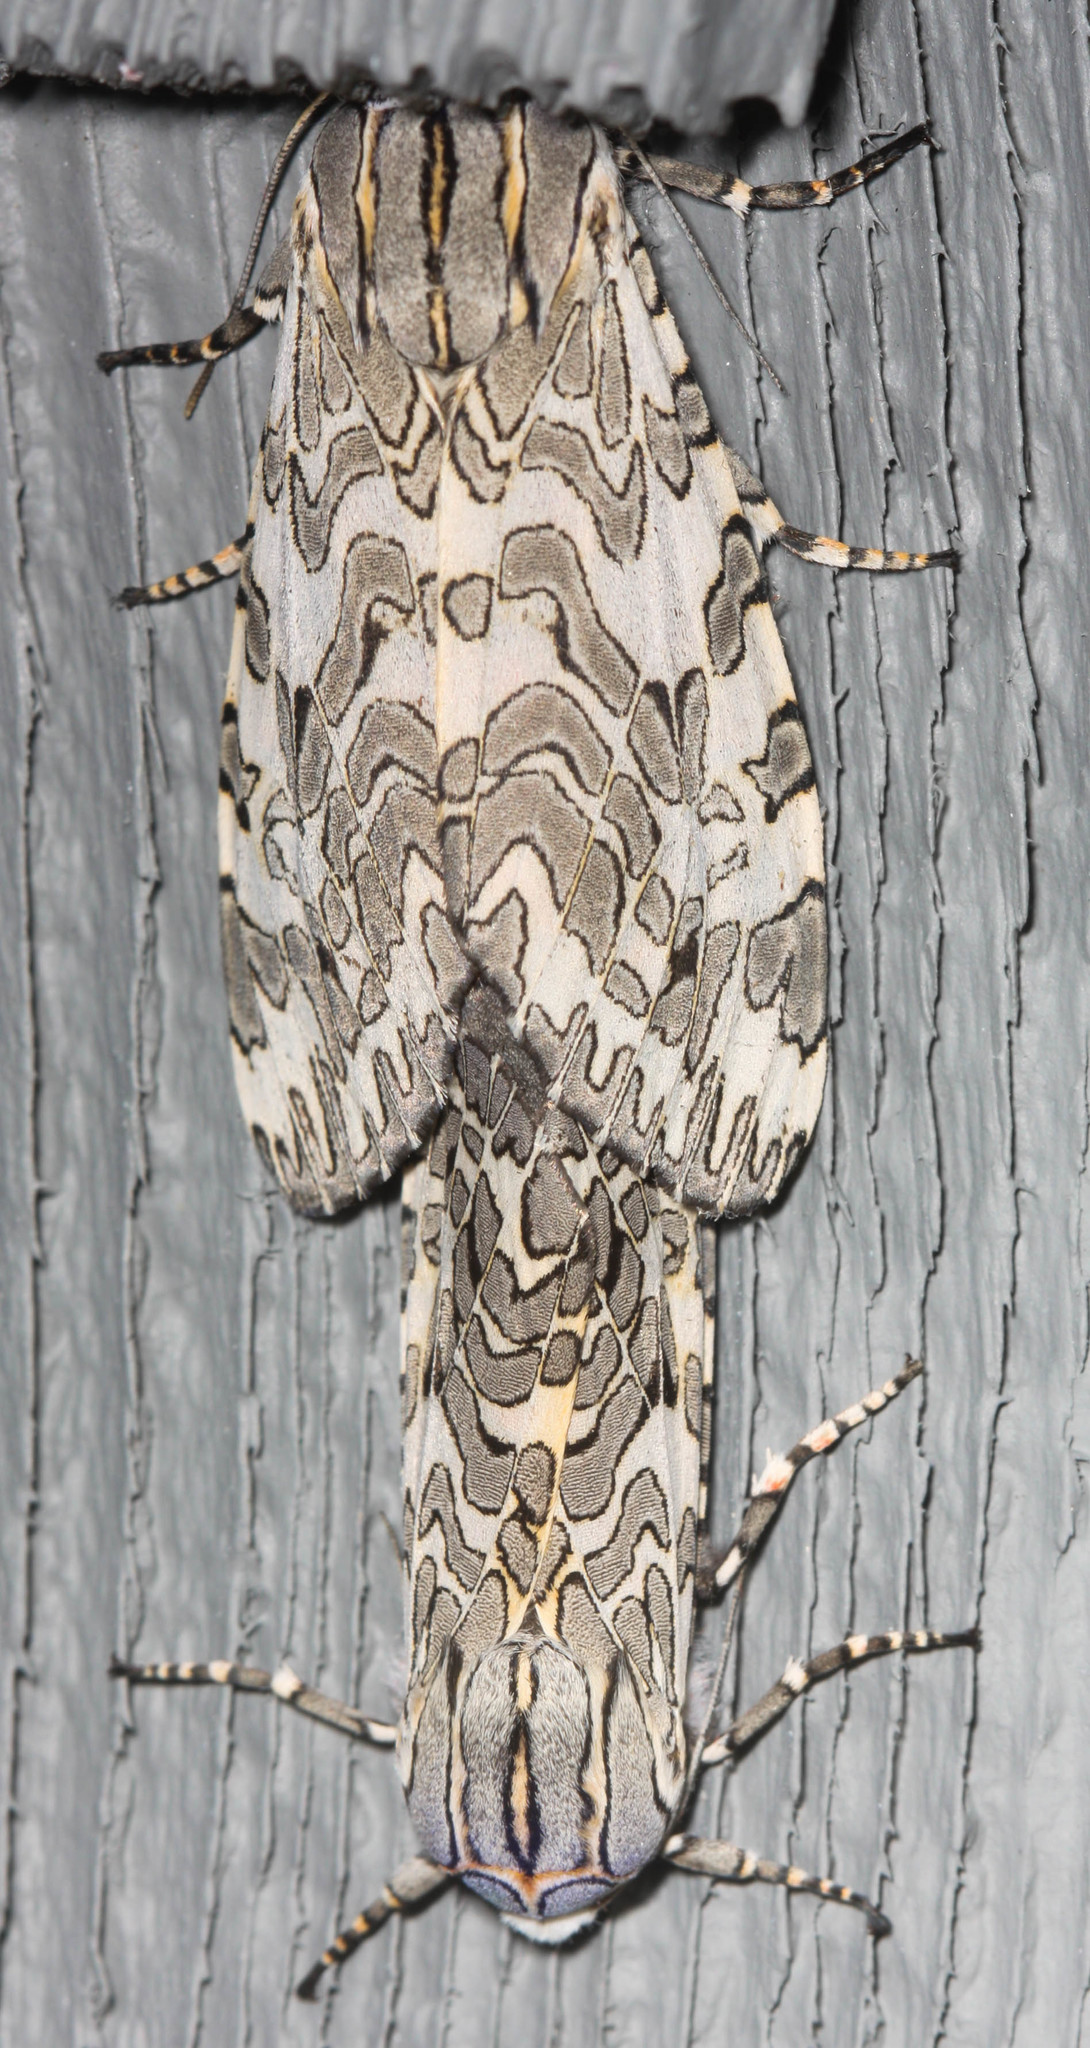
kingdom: Animalia
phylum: Arthropoda
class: Insecta
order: Lepidoptera
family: Erebidae
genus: Arachnis
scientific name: Arachnis picta
